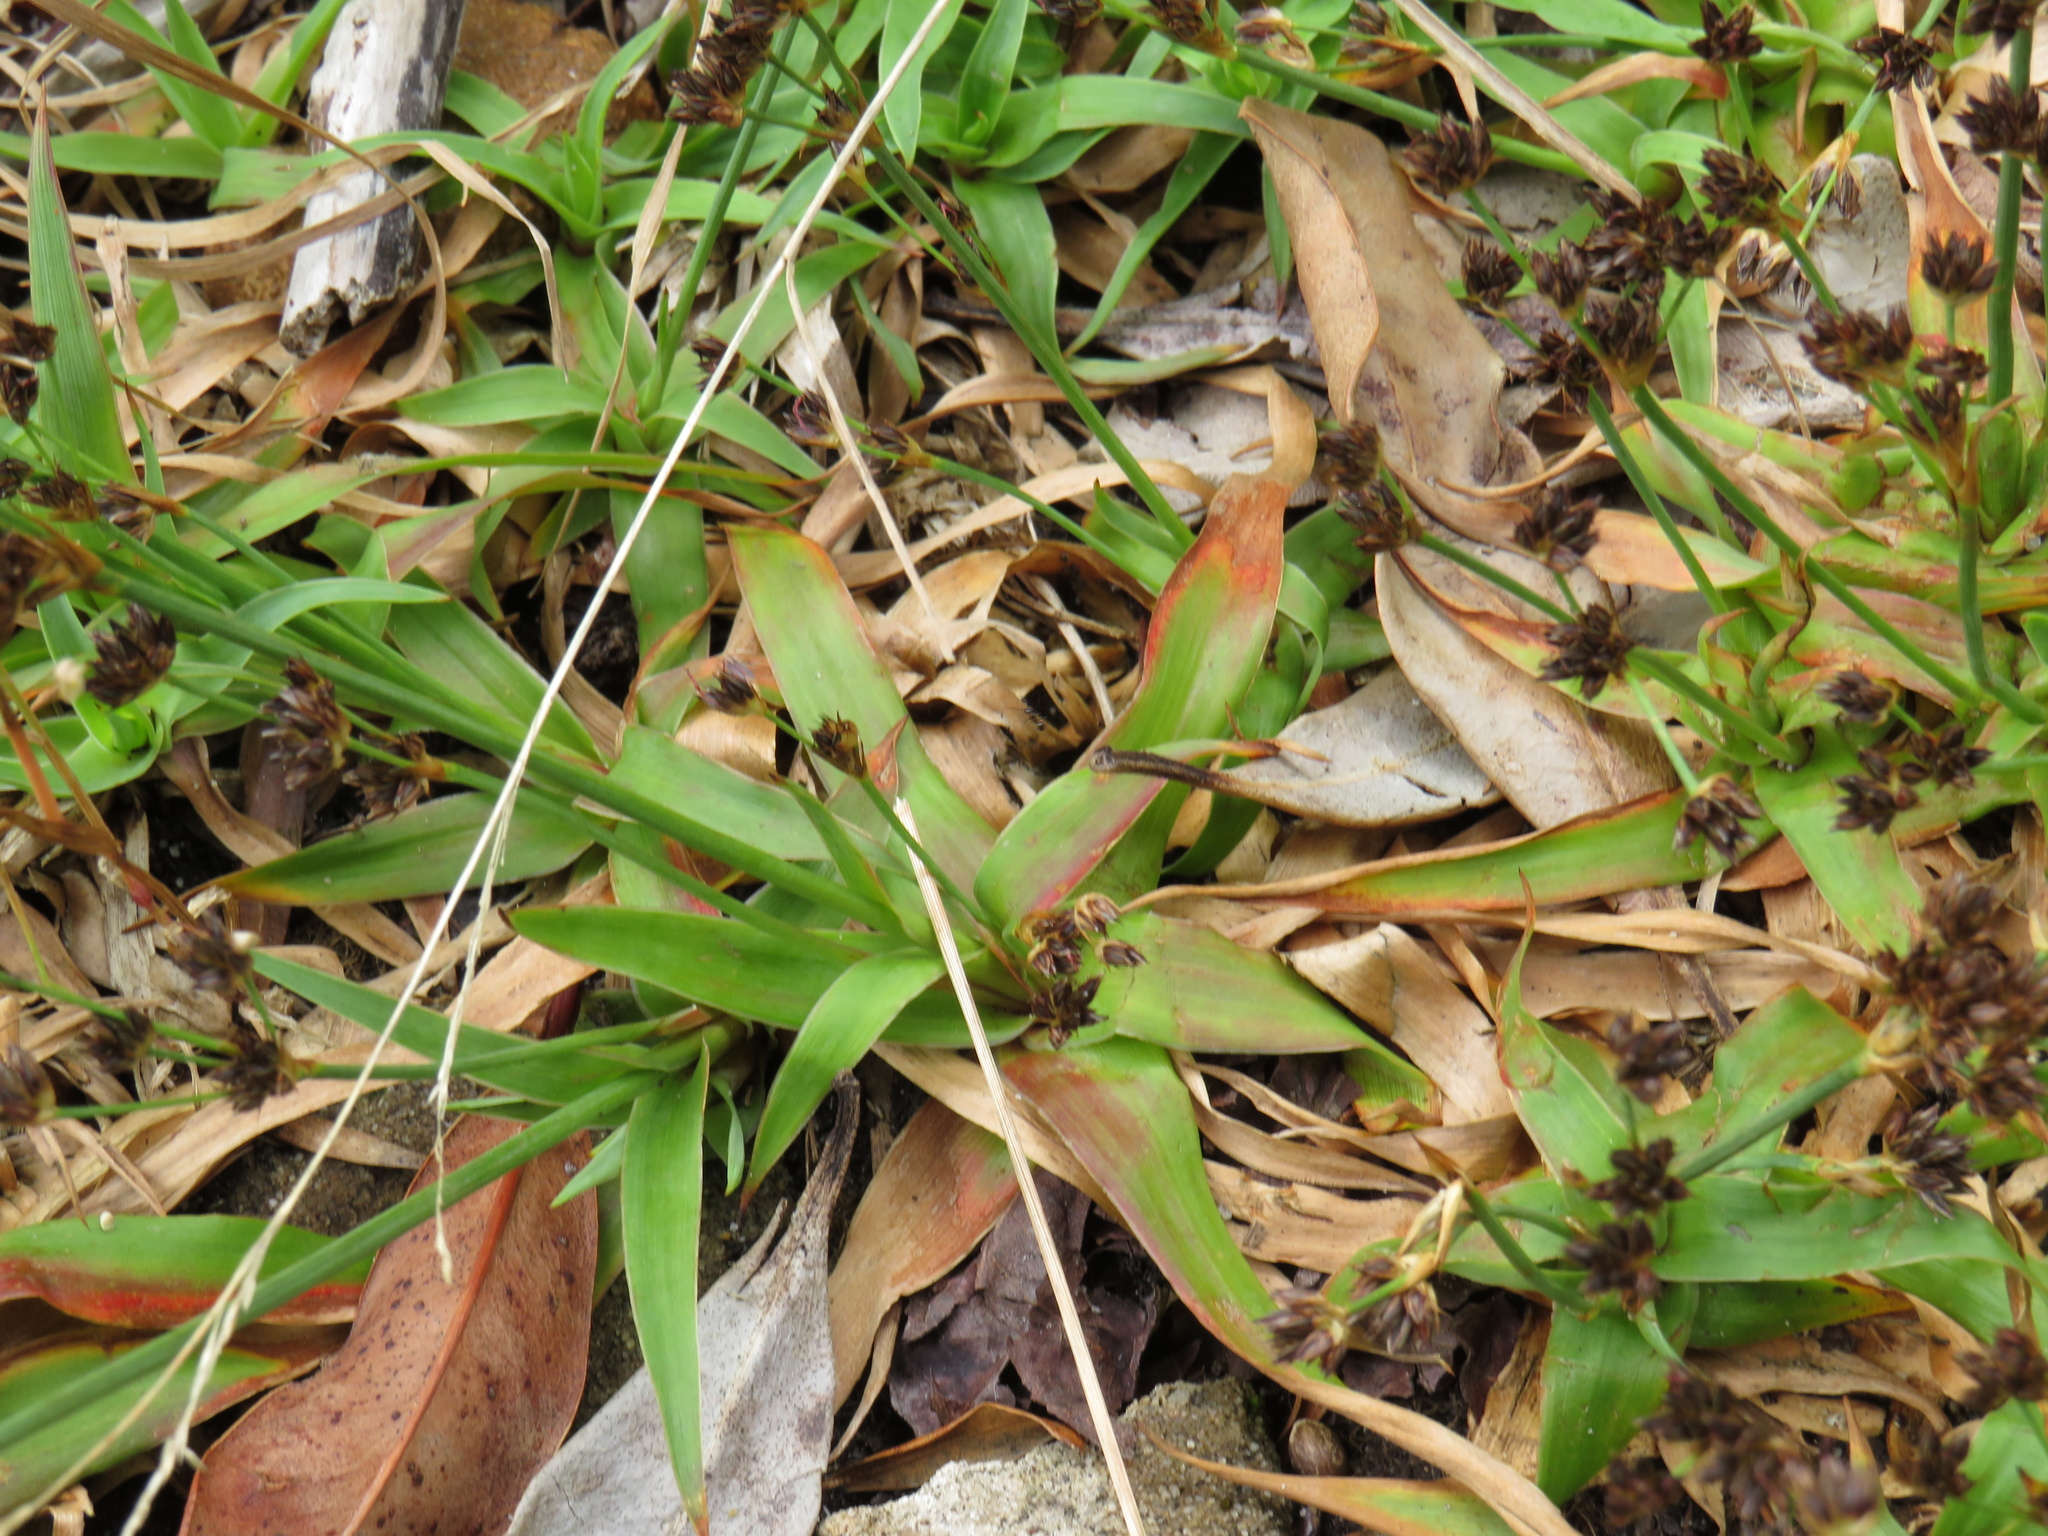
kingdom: Plantae
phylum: Tracheophyta
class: Liliopsida
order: Poales
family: Juncaceae
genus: Juncus
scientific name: Juncus lomatophyllus
